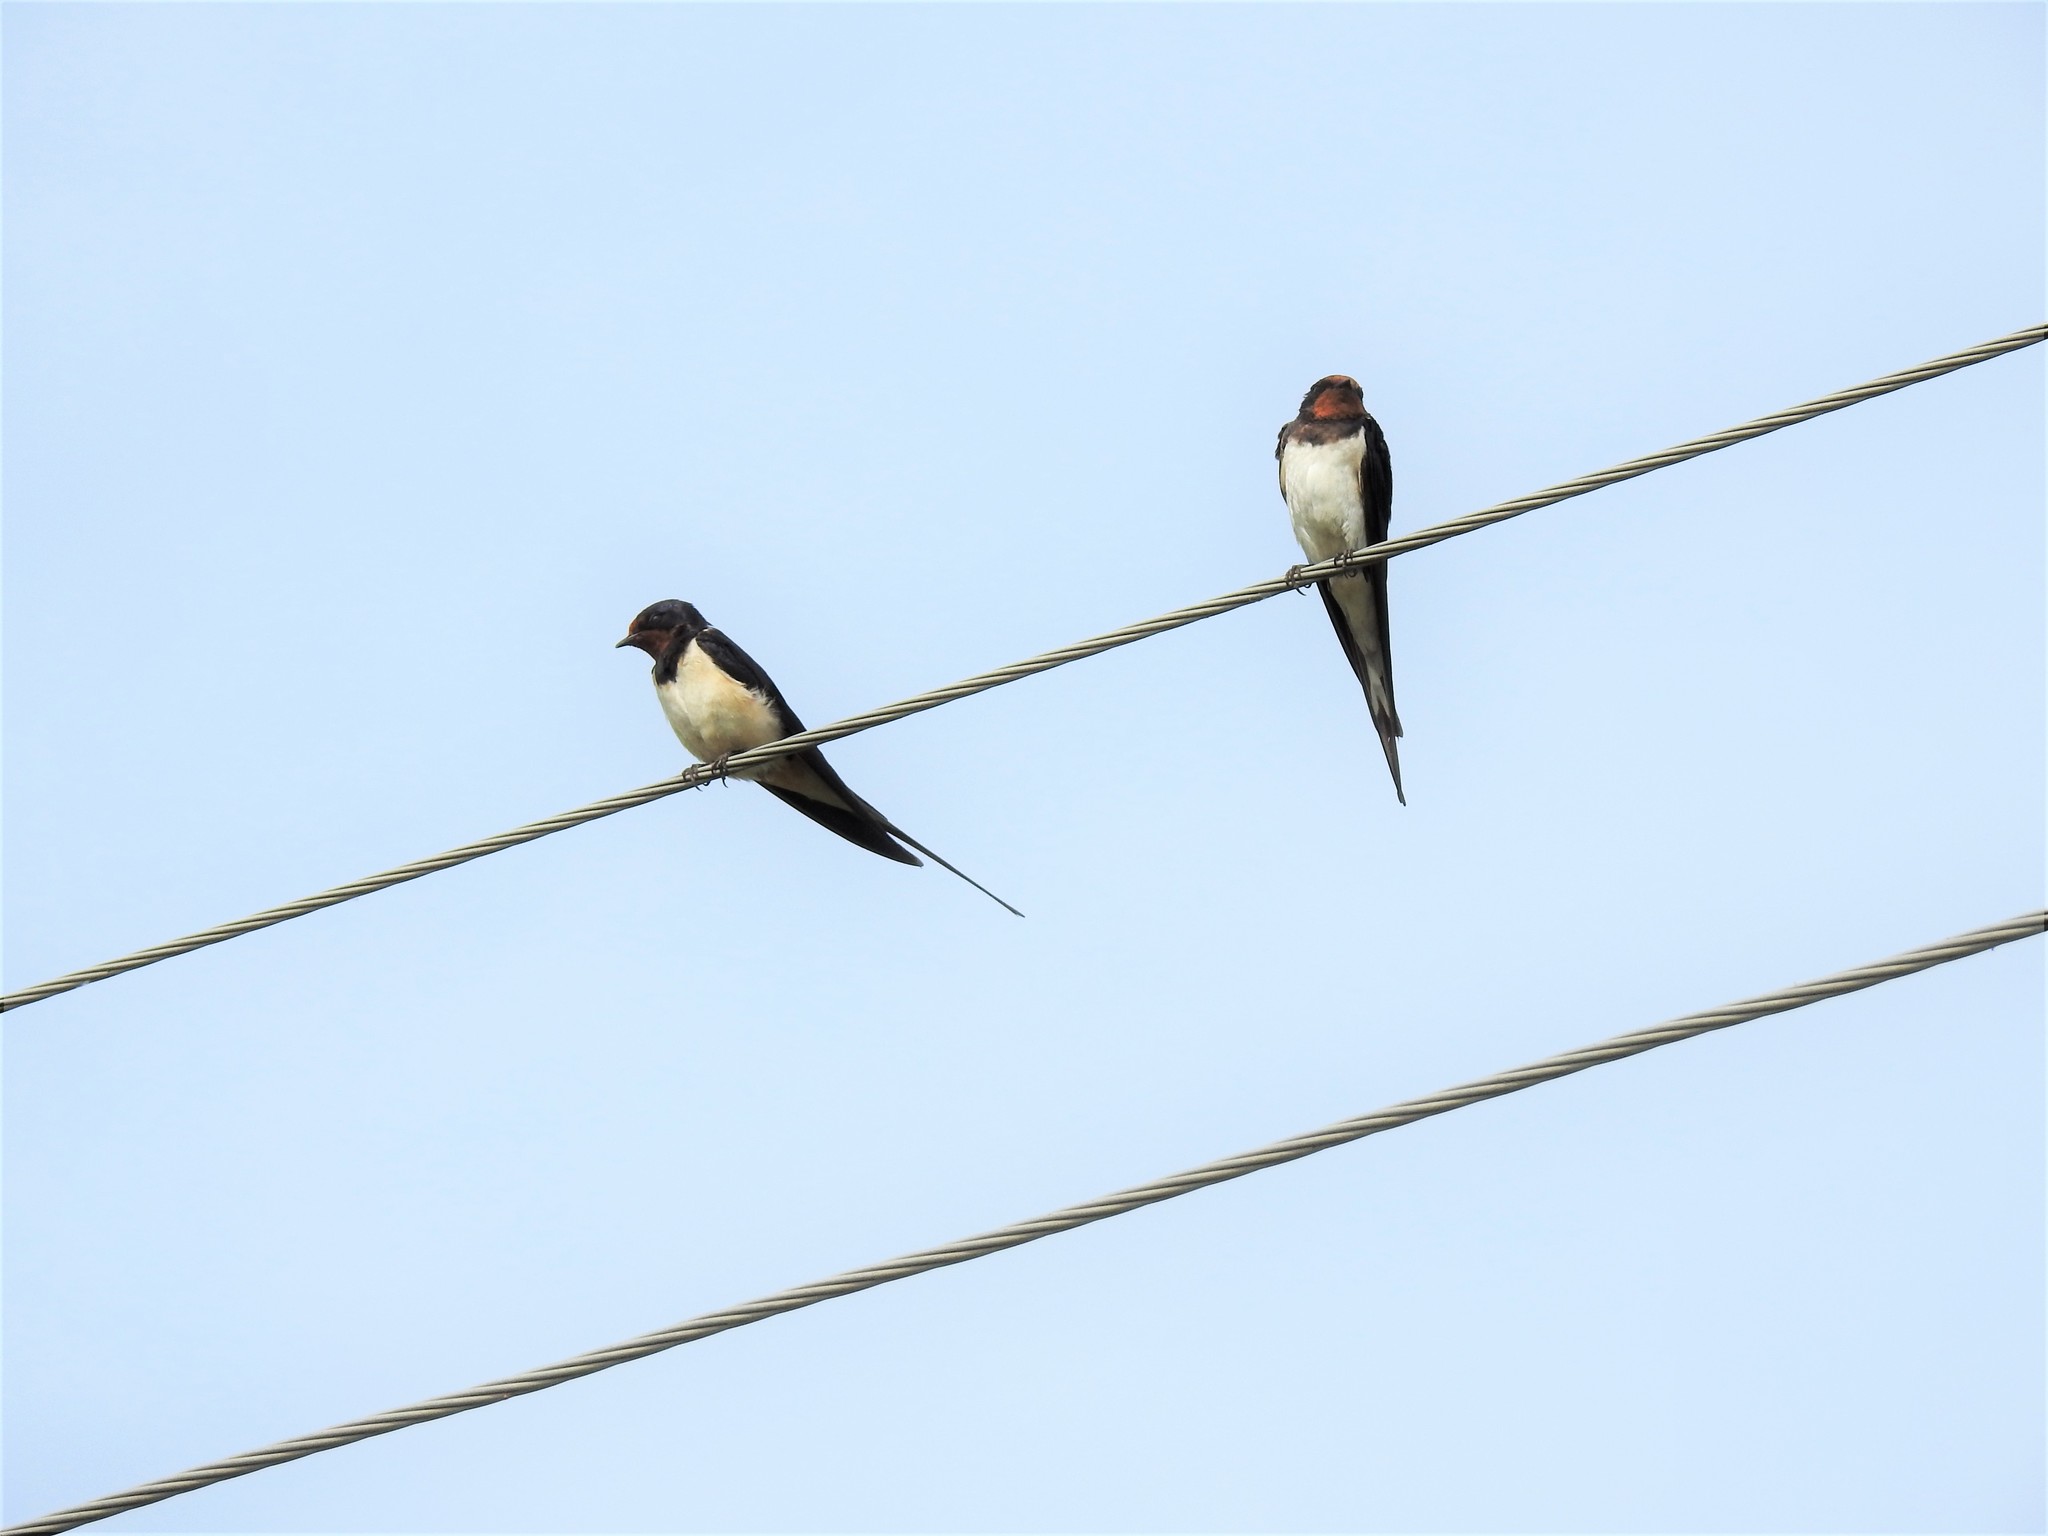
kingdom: Animalia
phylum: Chordata
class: Aves
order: Passeriformes
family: Hirundinidae
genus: Hirundo
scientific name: Hirundo rustica
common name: Barn swallow
